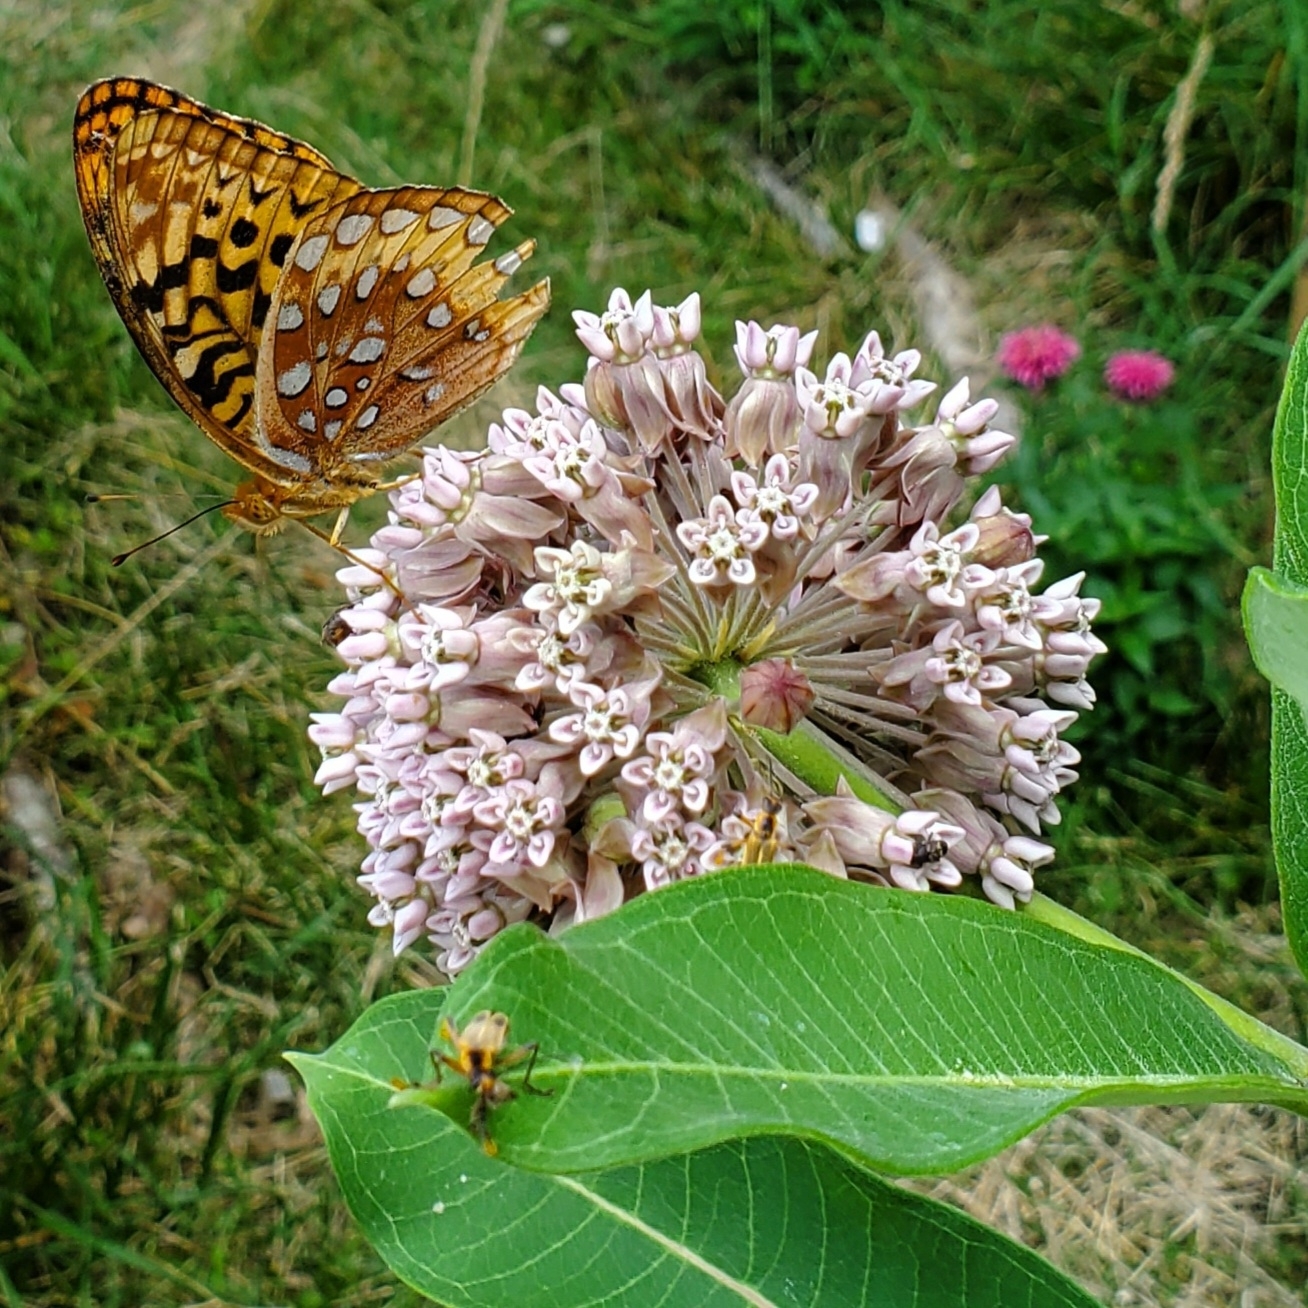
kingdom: Animalia
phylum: Arthropoda
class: Insecta
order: Lepidoptera
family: Nymphalidae
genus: Speyeria
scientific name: Speyeria cybele
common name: Great spangled fritillary
